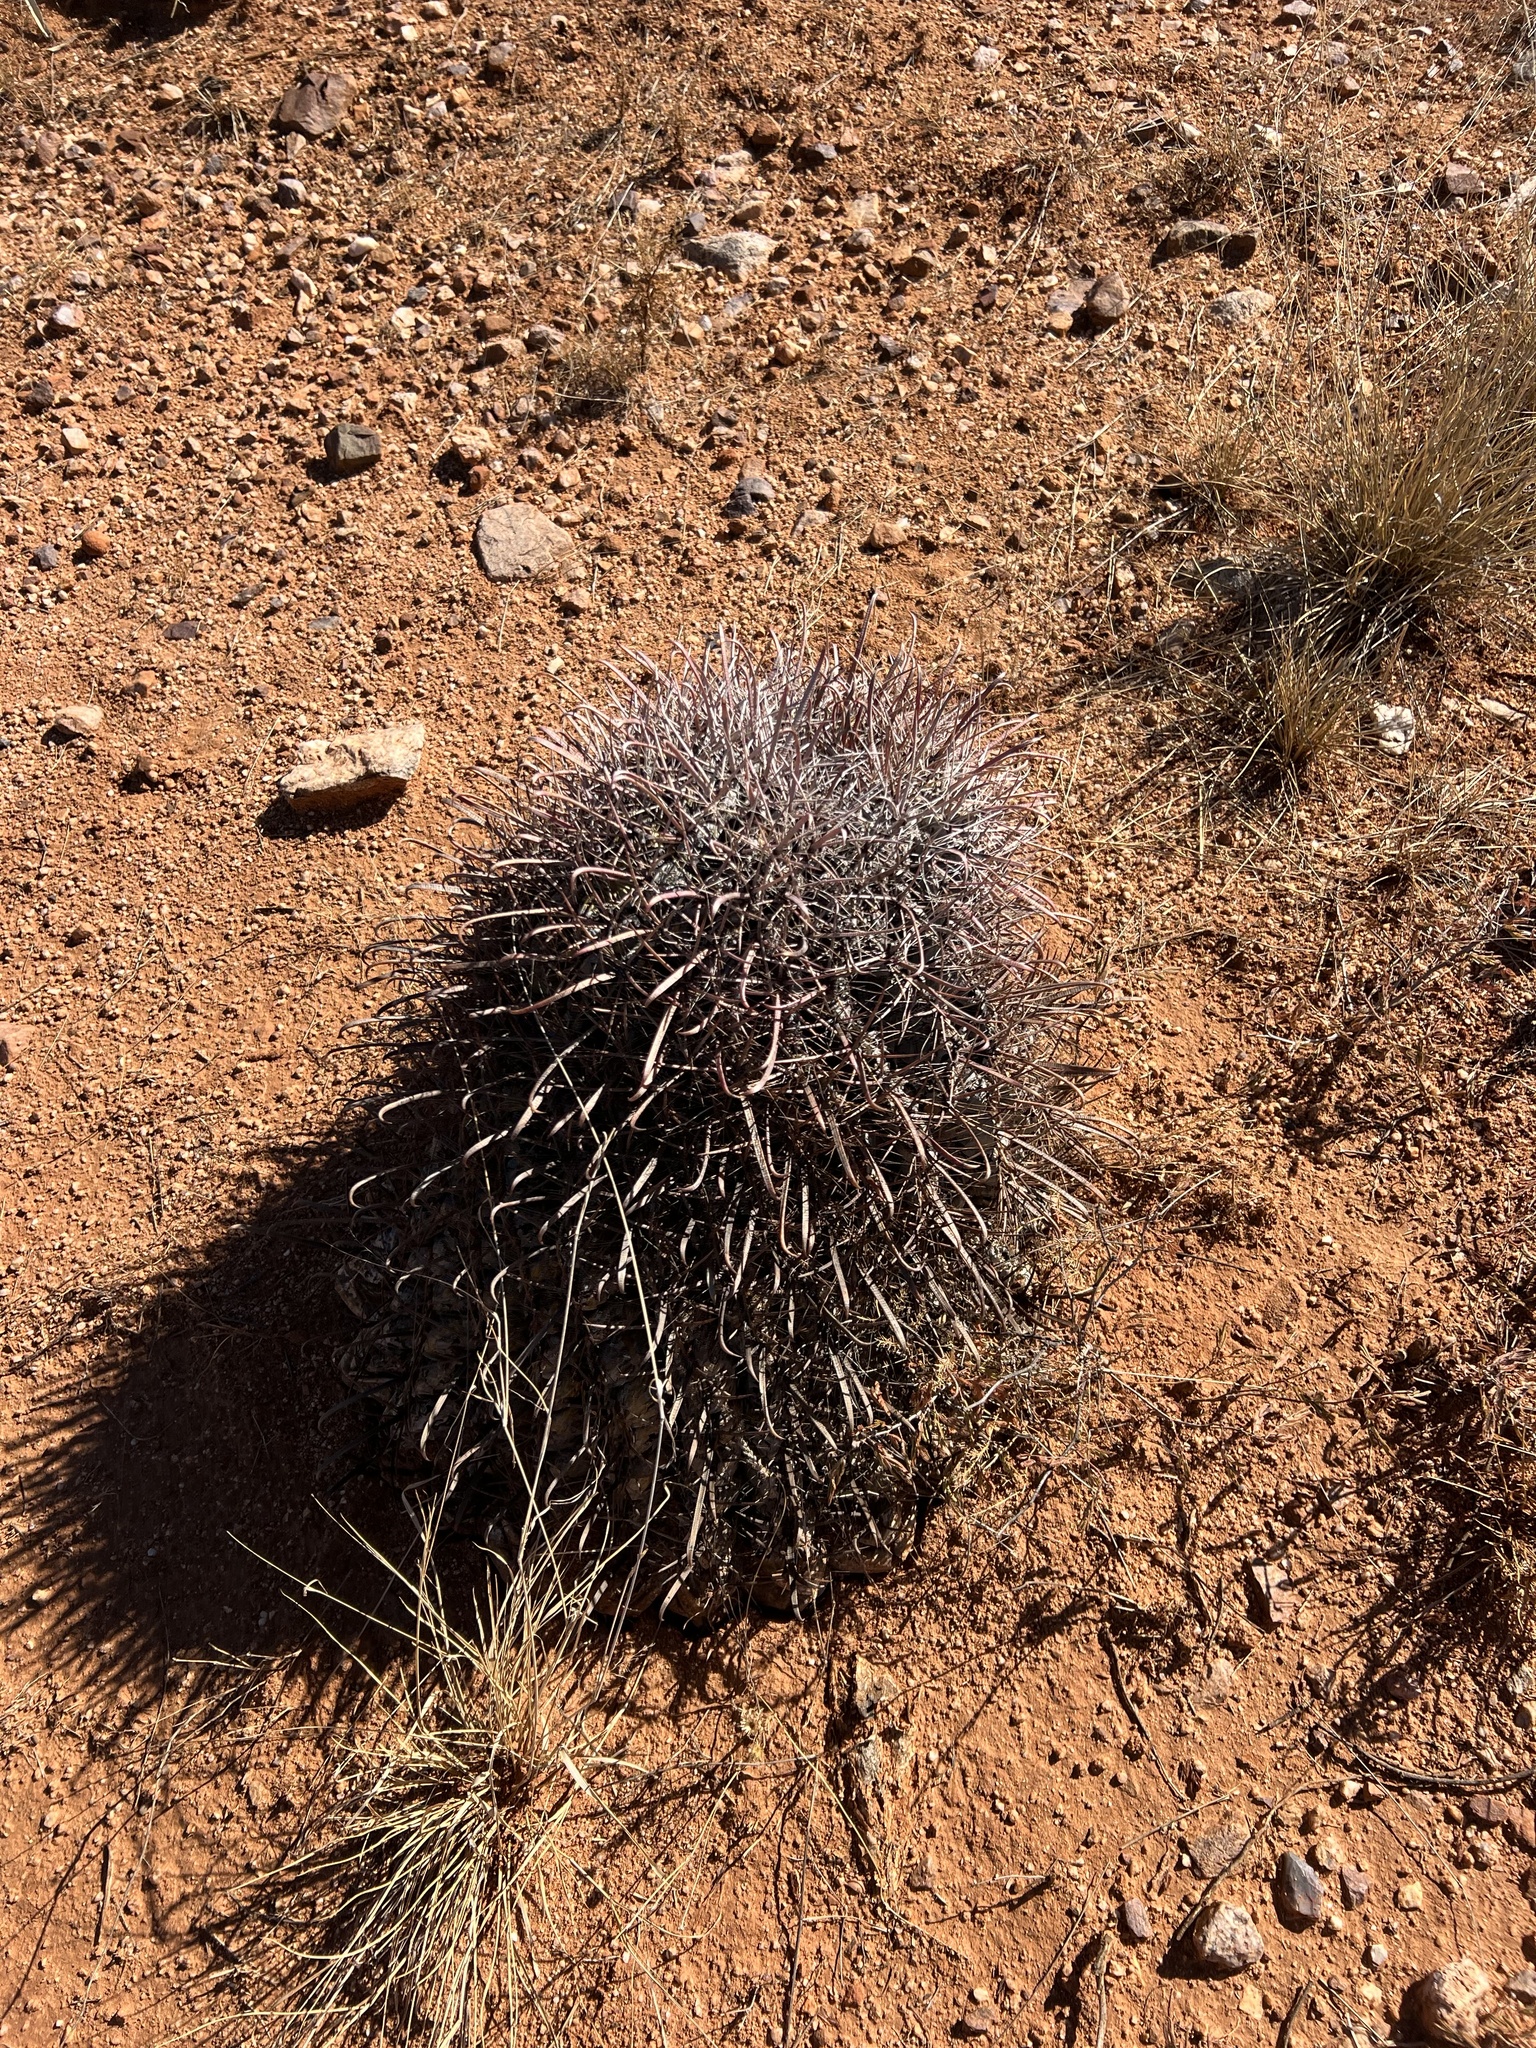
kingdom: Plantae
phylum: Tracheophyta
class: Magnoliopsida
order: Caryophyllales
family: Cactaceae
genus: Ferocactus
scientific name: Ferocactus wislizeni
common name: Candy barrel cactus
